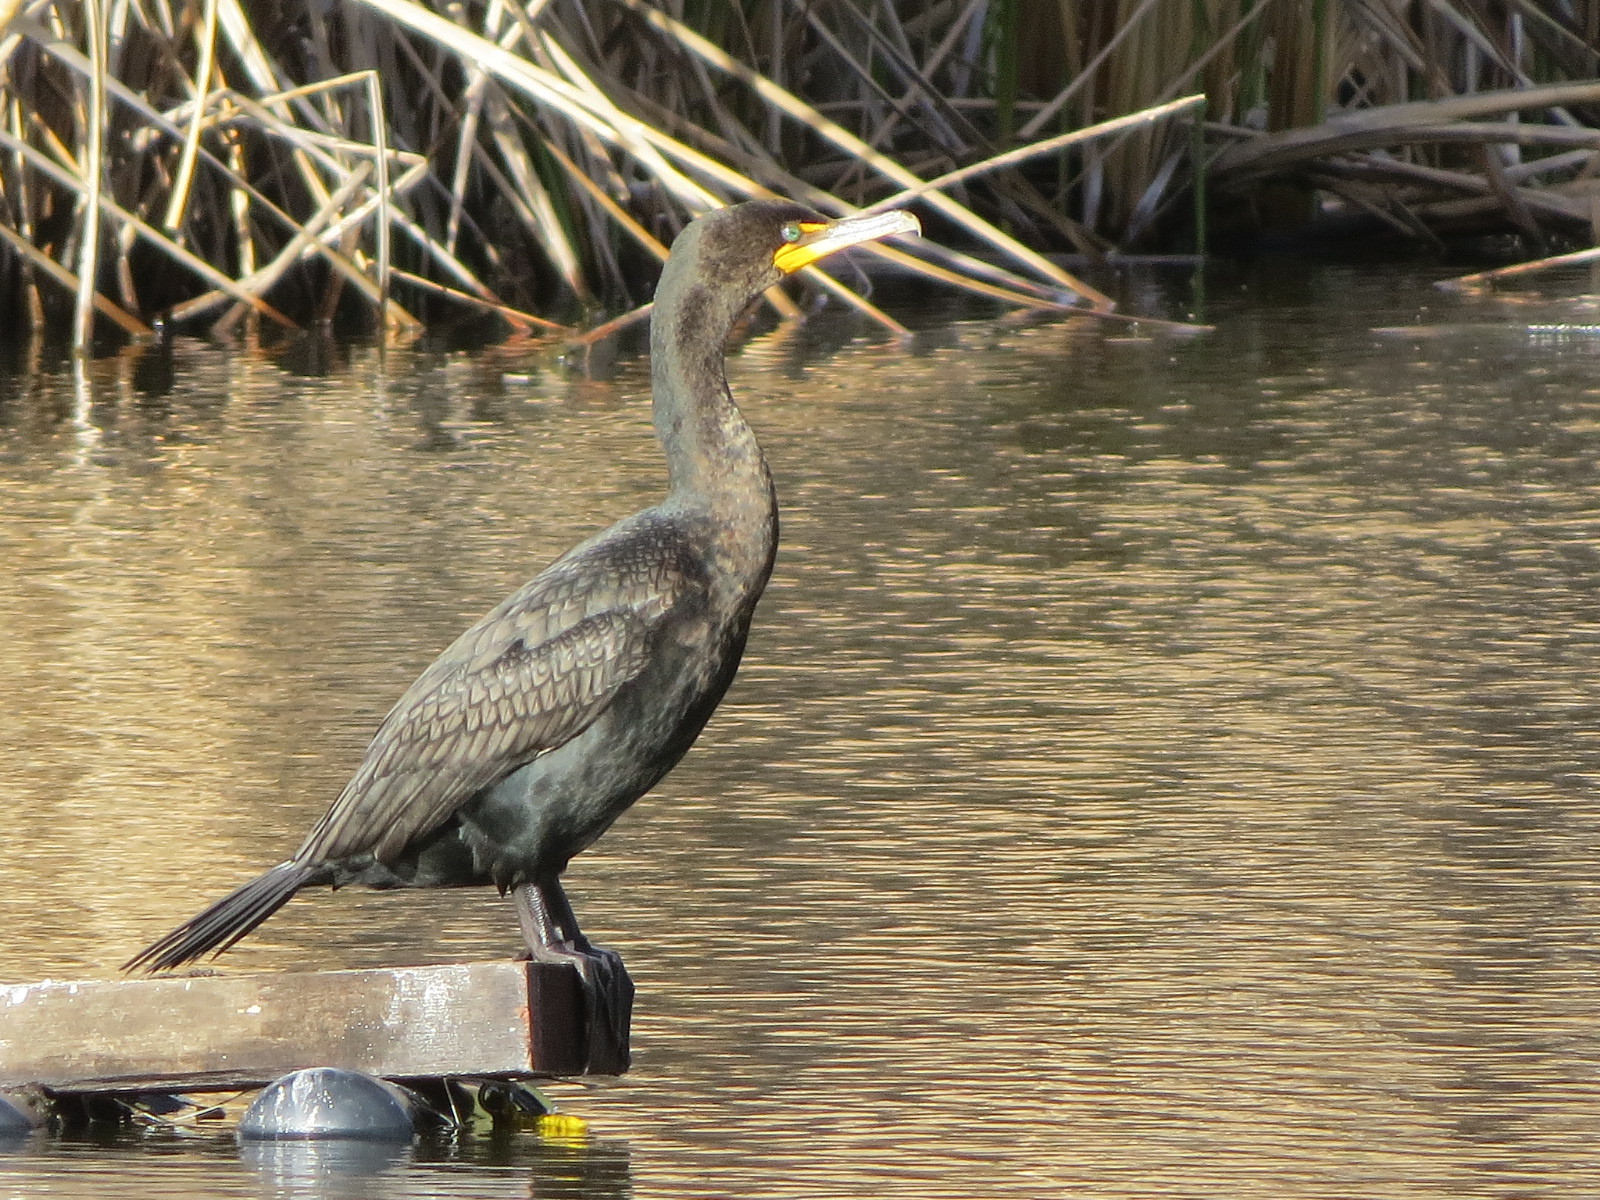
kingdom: Animalia
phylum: Chordata
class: Aves
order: Suliformes
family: Phalacrocoracidae
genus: Phalacrocorax
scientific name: Phalacrocorax auritus
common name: Double-crested cormorant
